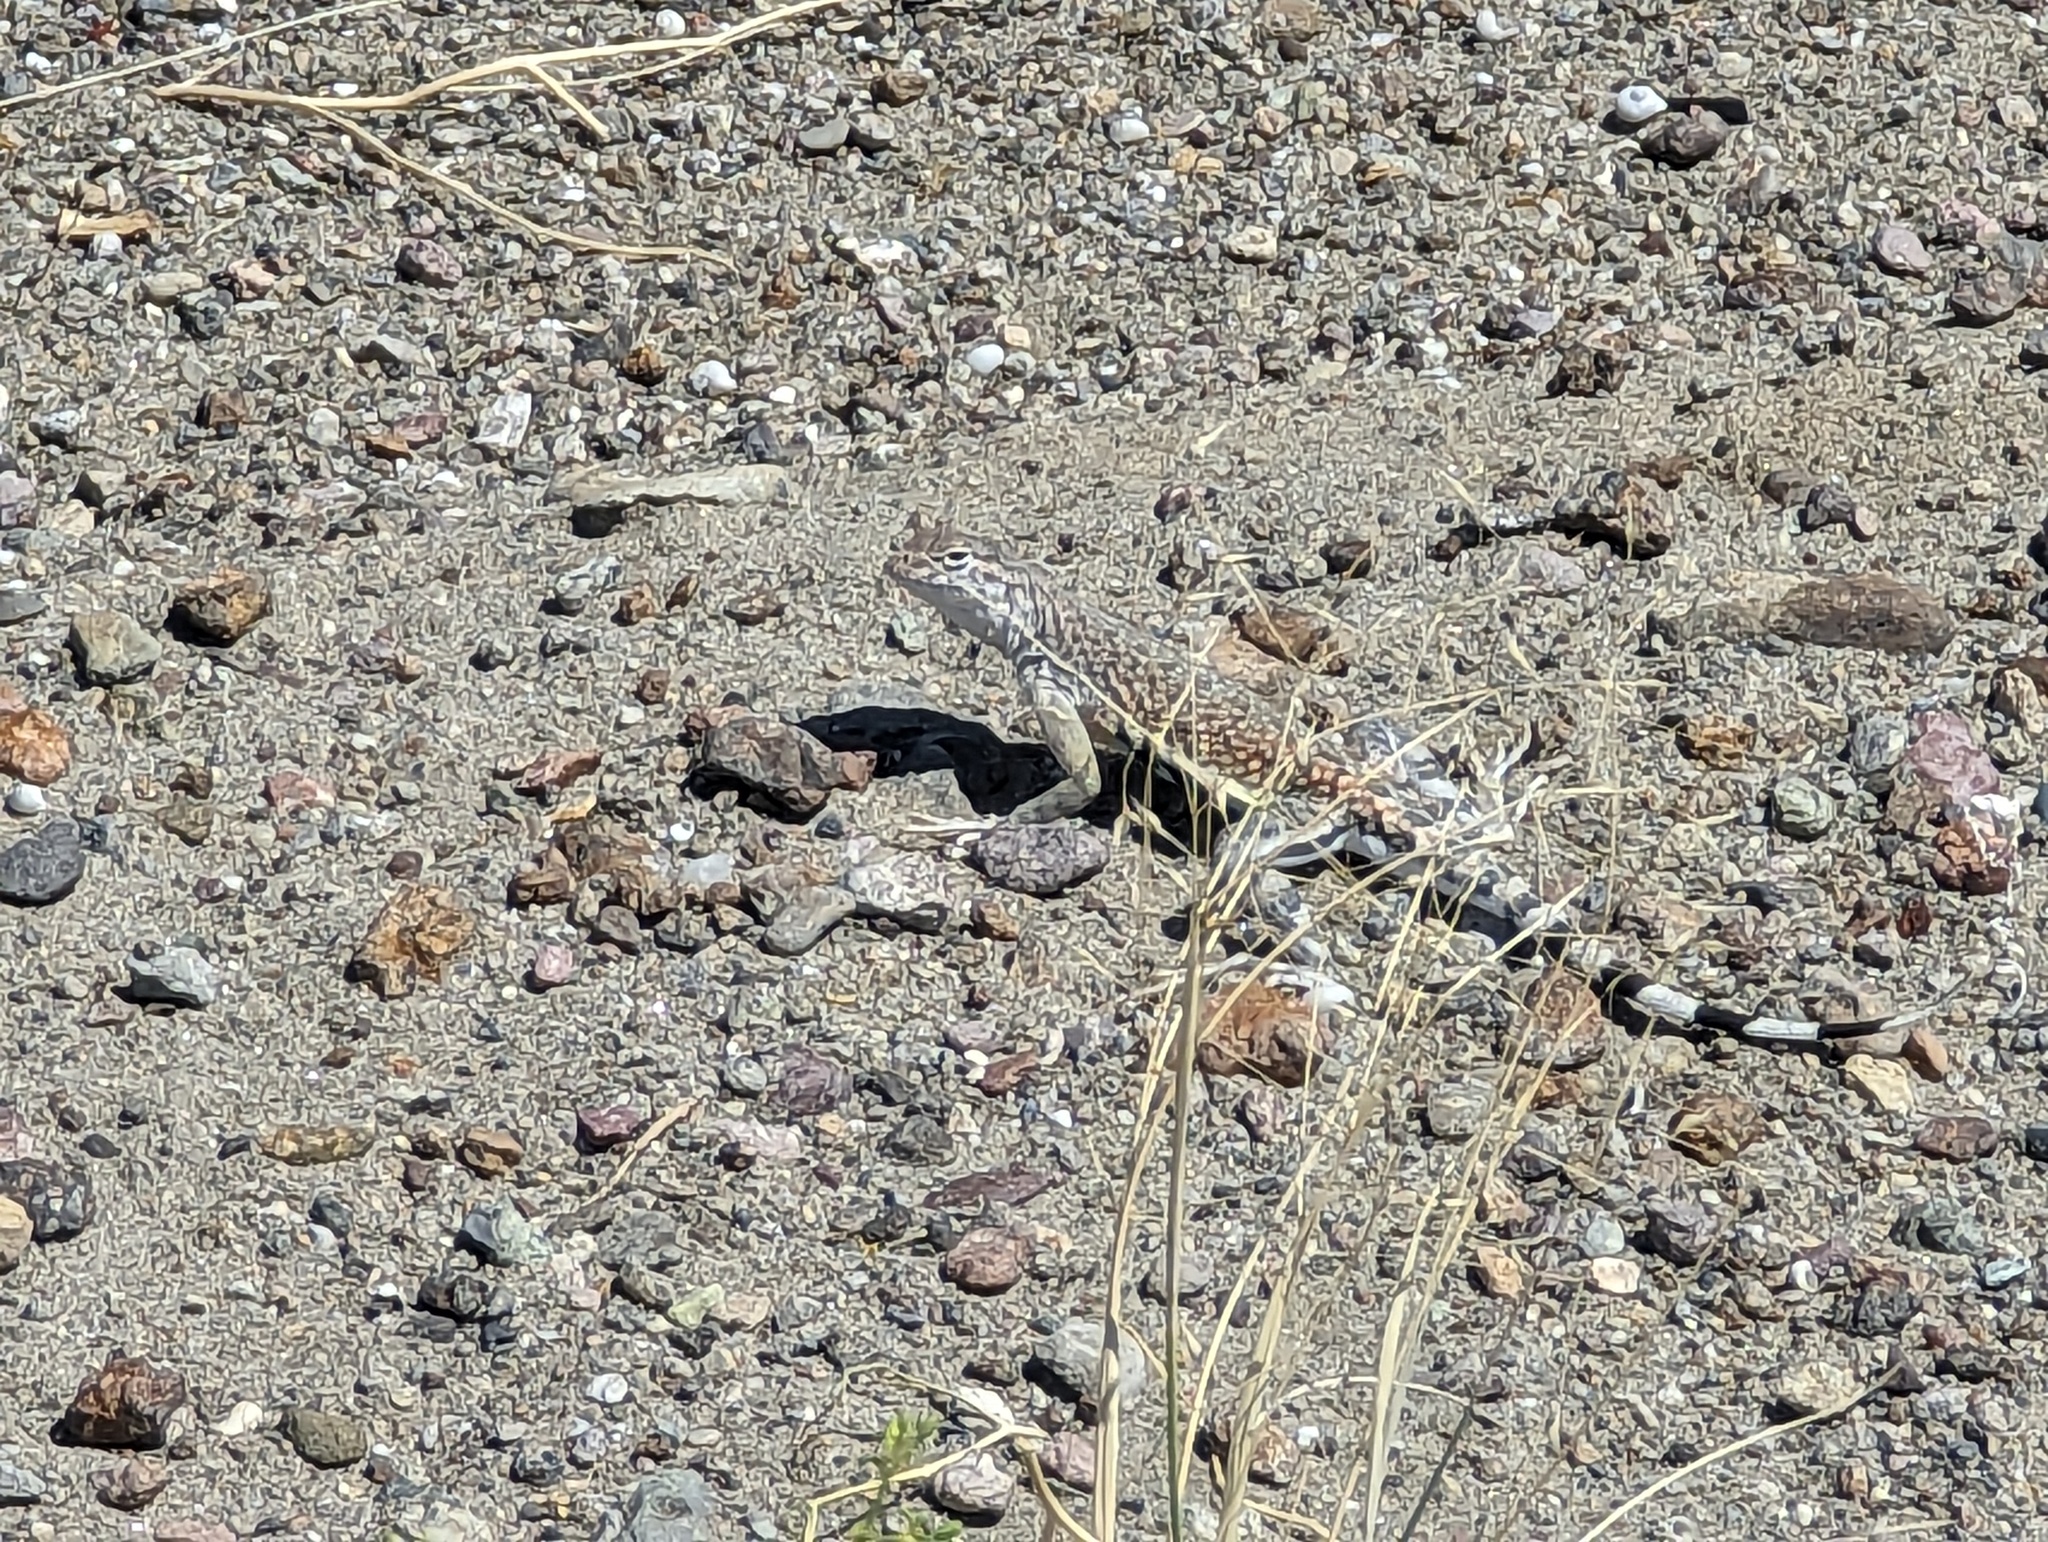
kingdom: Animalia
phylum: Chordata
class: Squamata
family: Phrynosomatidae
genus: Callisaurus
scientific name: Callisaurus draconoides
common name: Zebra-tailed lizard
